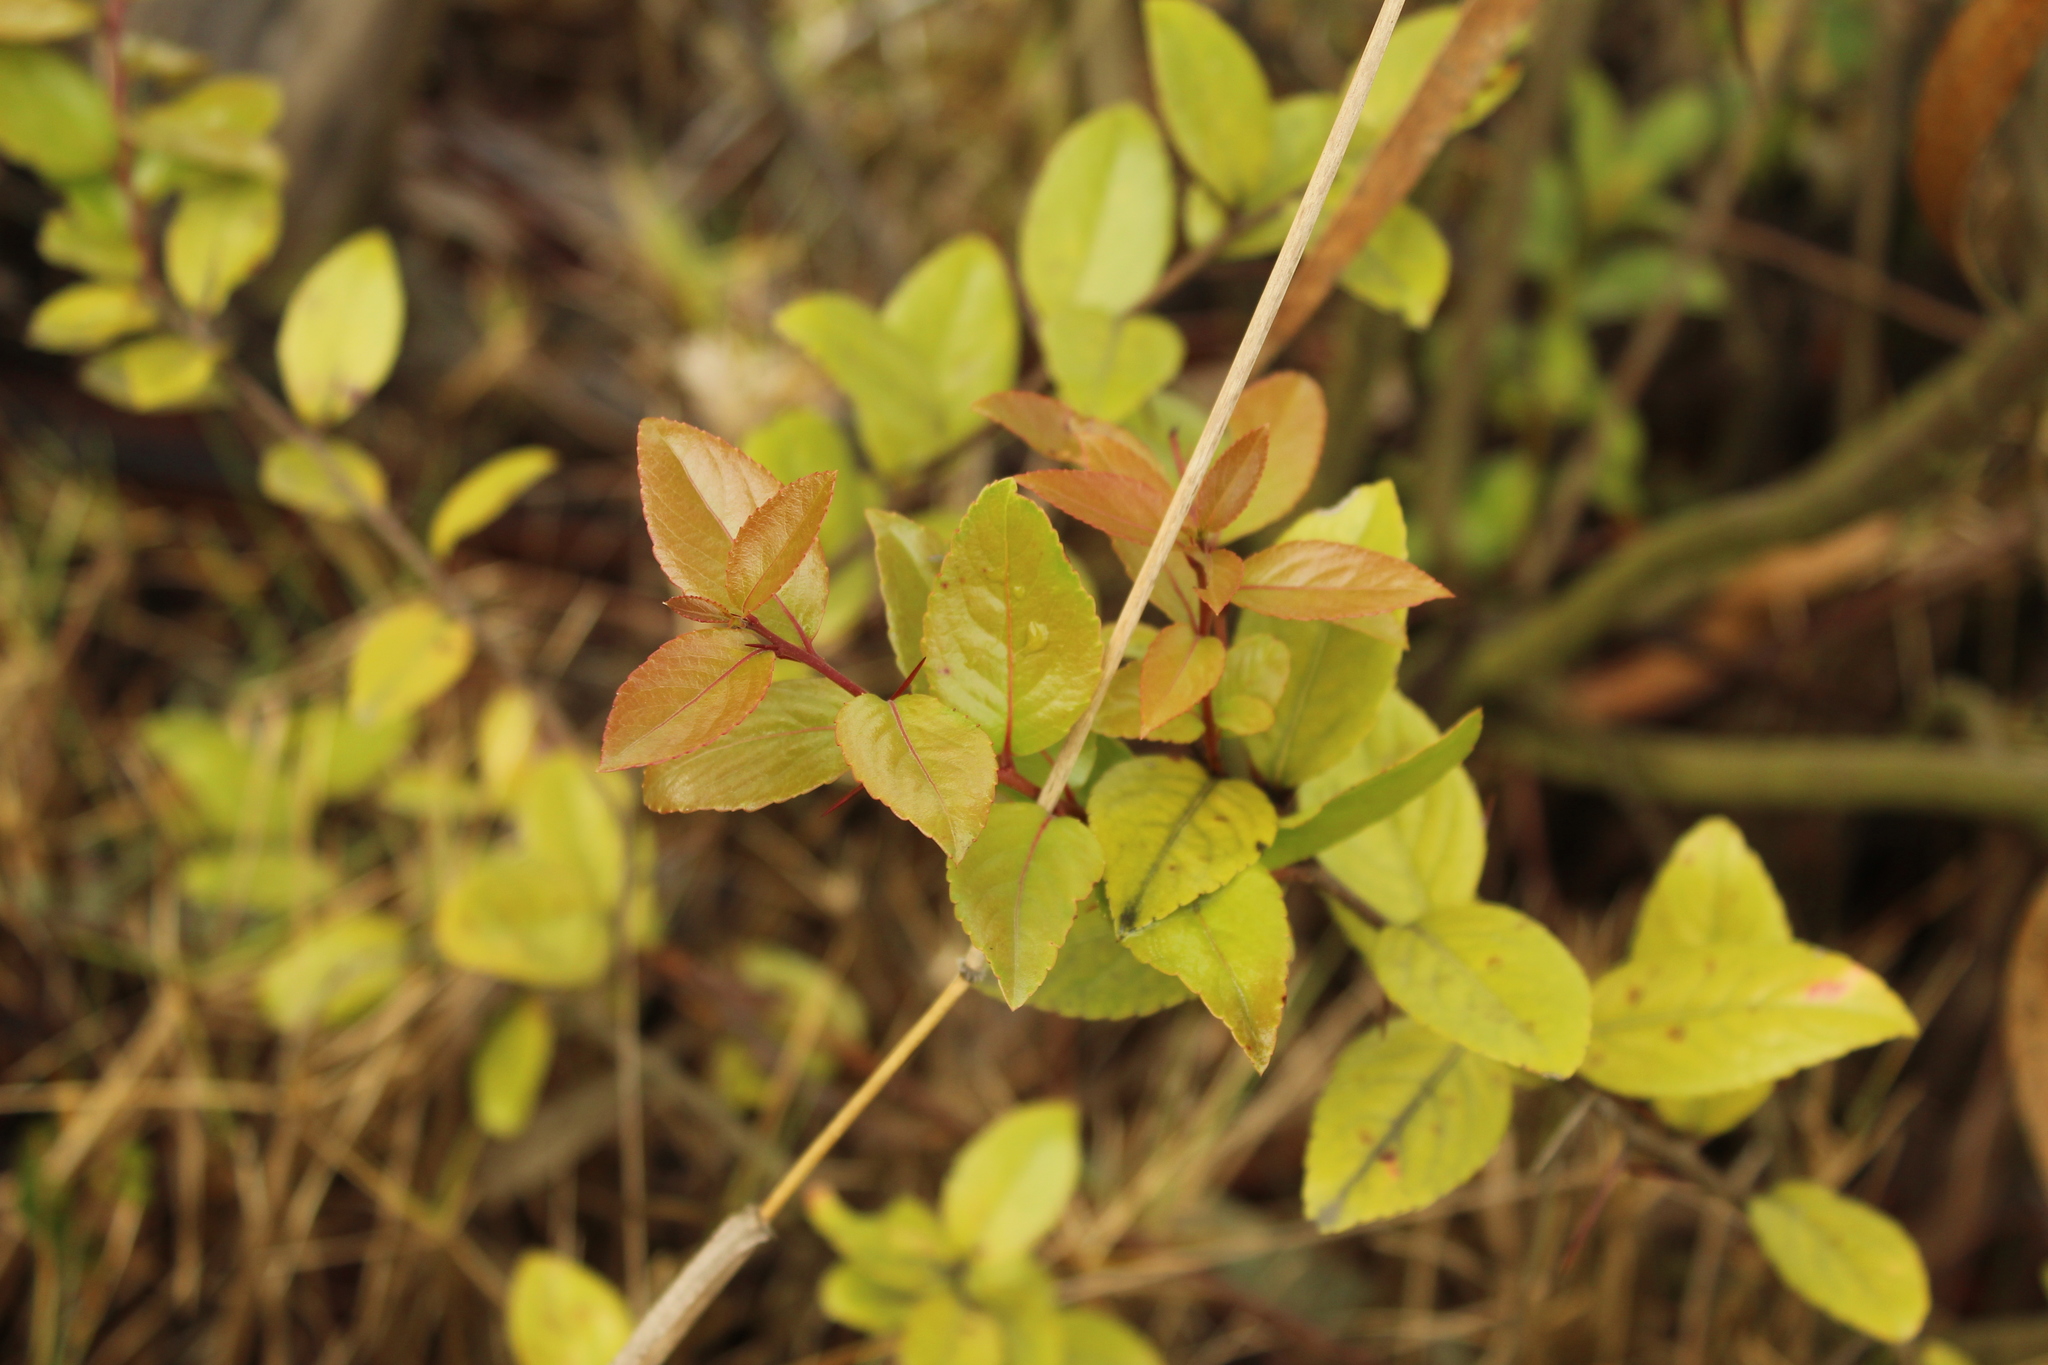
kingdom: Plantae
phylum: Tracheophyta
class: Magnoliopsida
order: Malpighiales
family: Salicaceae
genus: Xylosma
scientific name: Xylosma spiculifera
